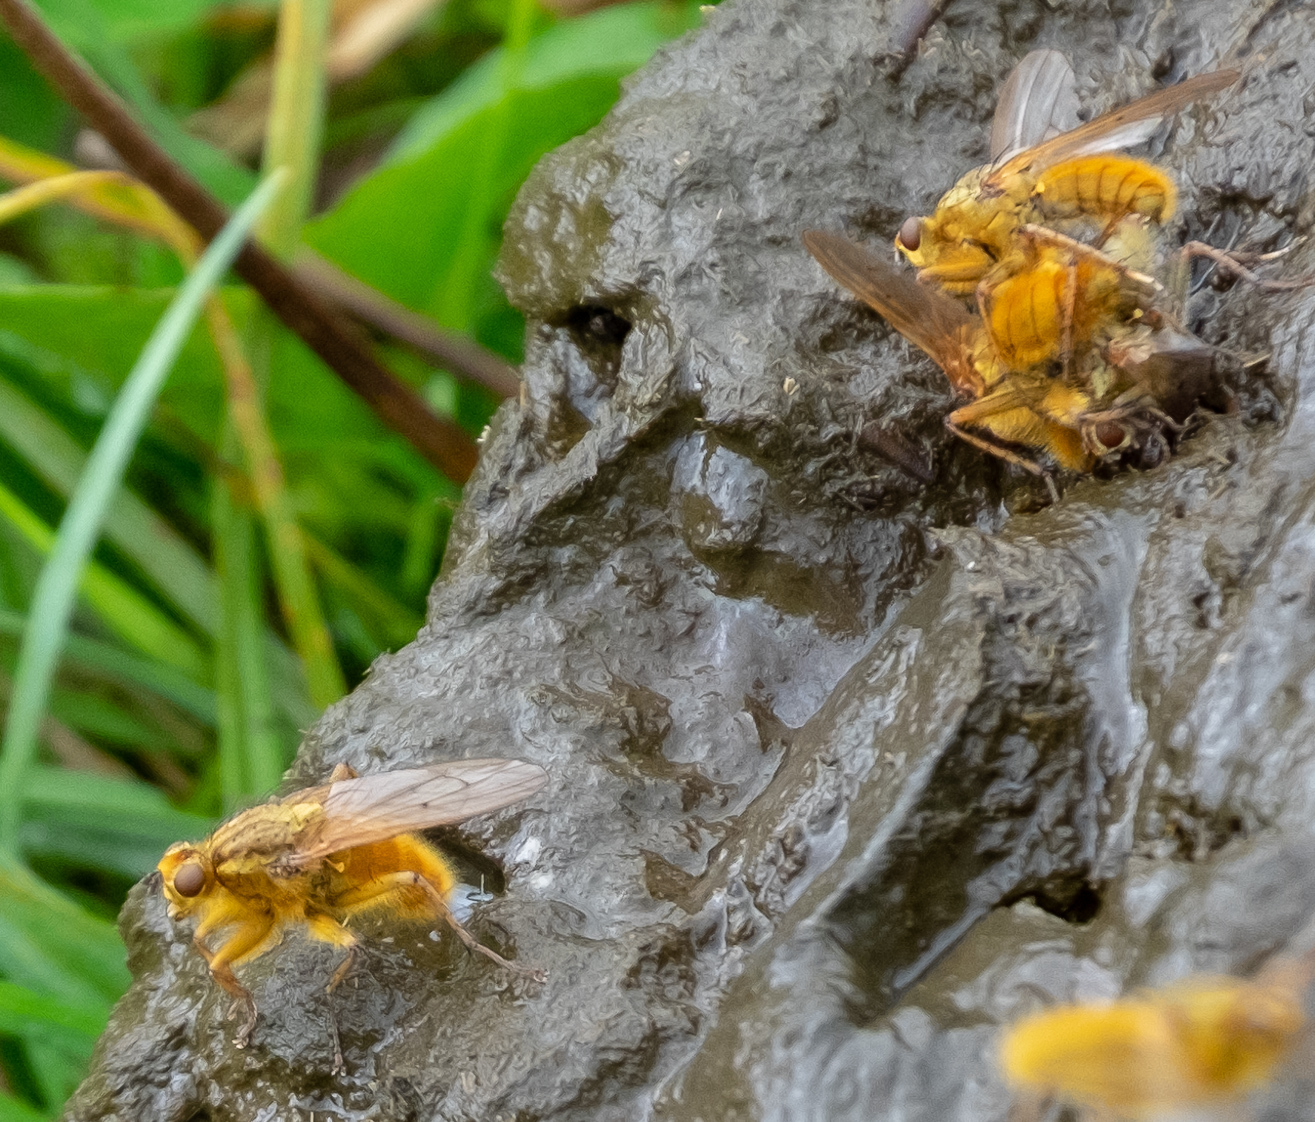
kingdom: Animalia
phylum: Arthropoda
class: Insecta
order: Diptera
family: Scathophagidae
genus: Scathophaga
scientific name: Scathophaga stercoraria
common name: Yellow dung fly
